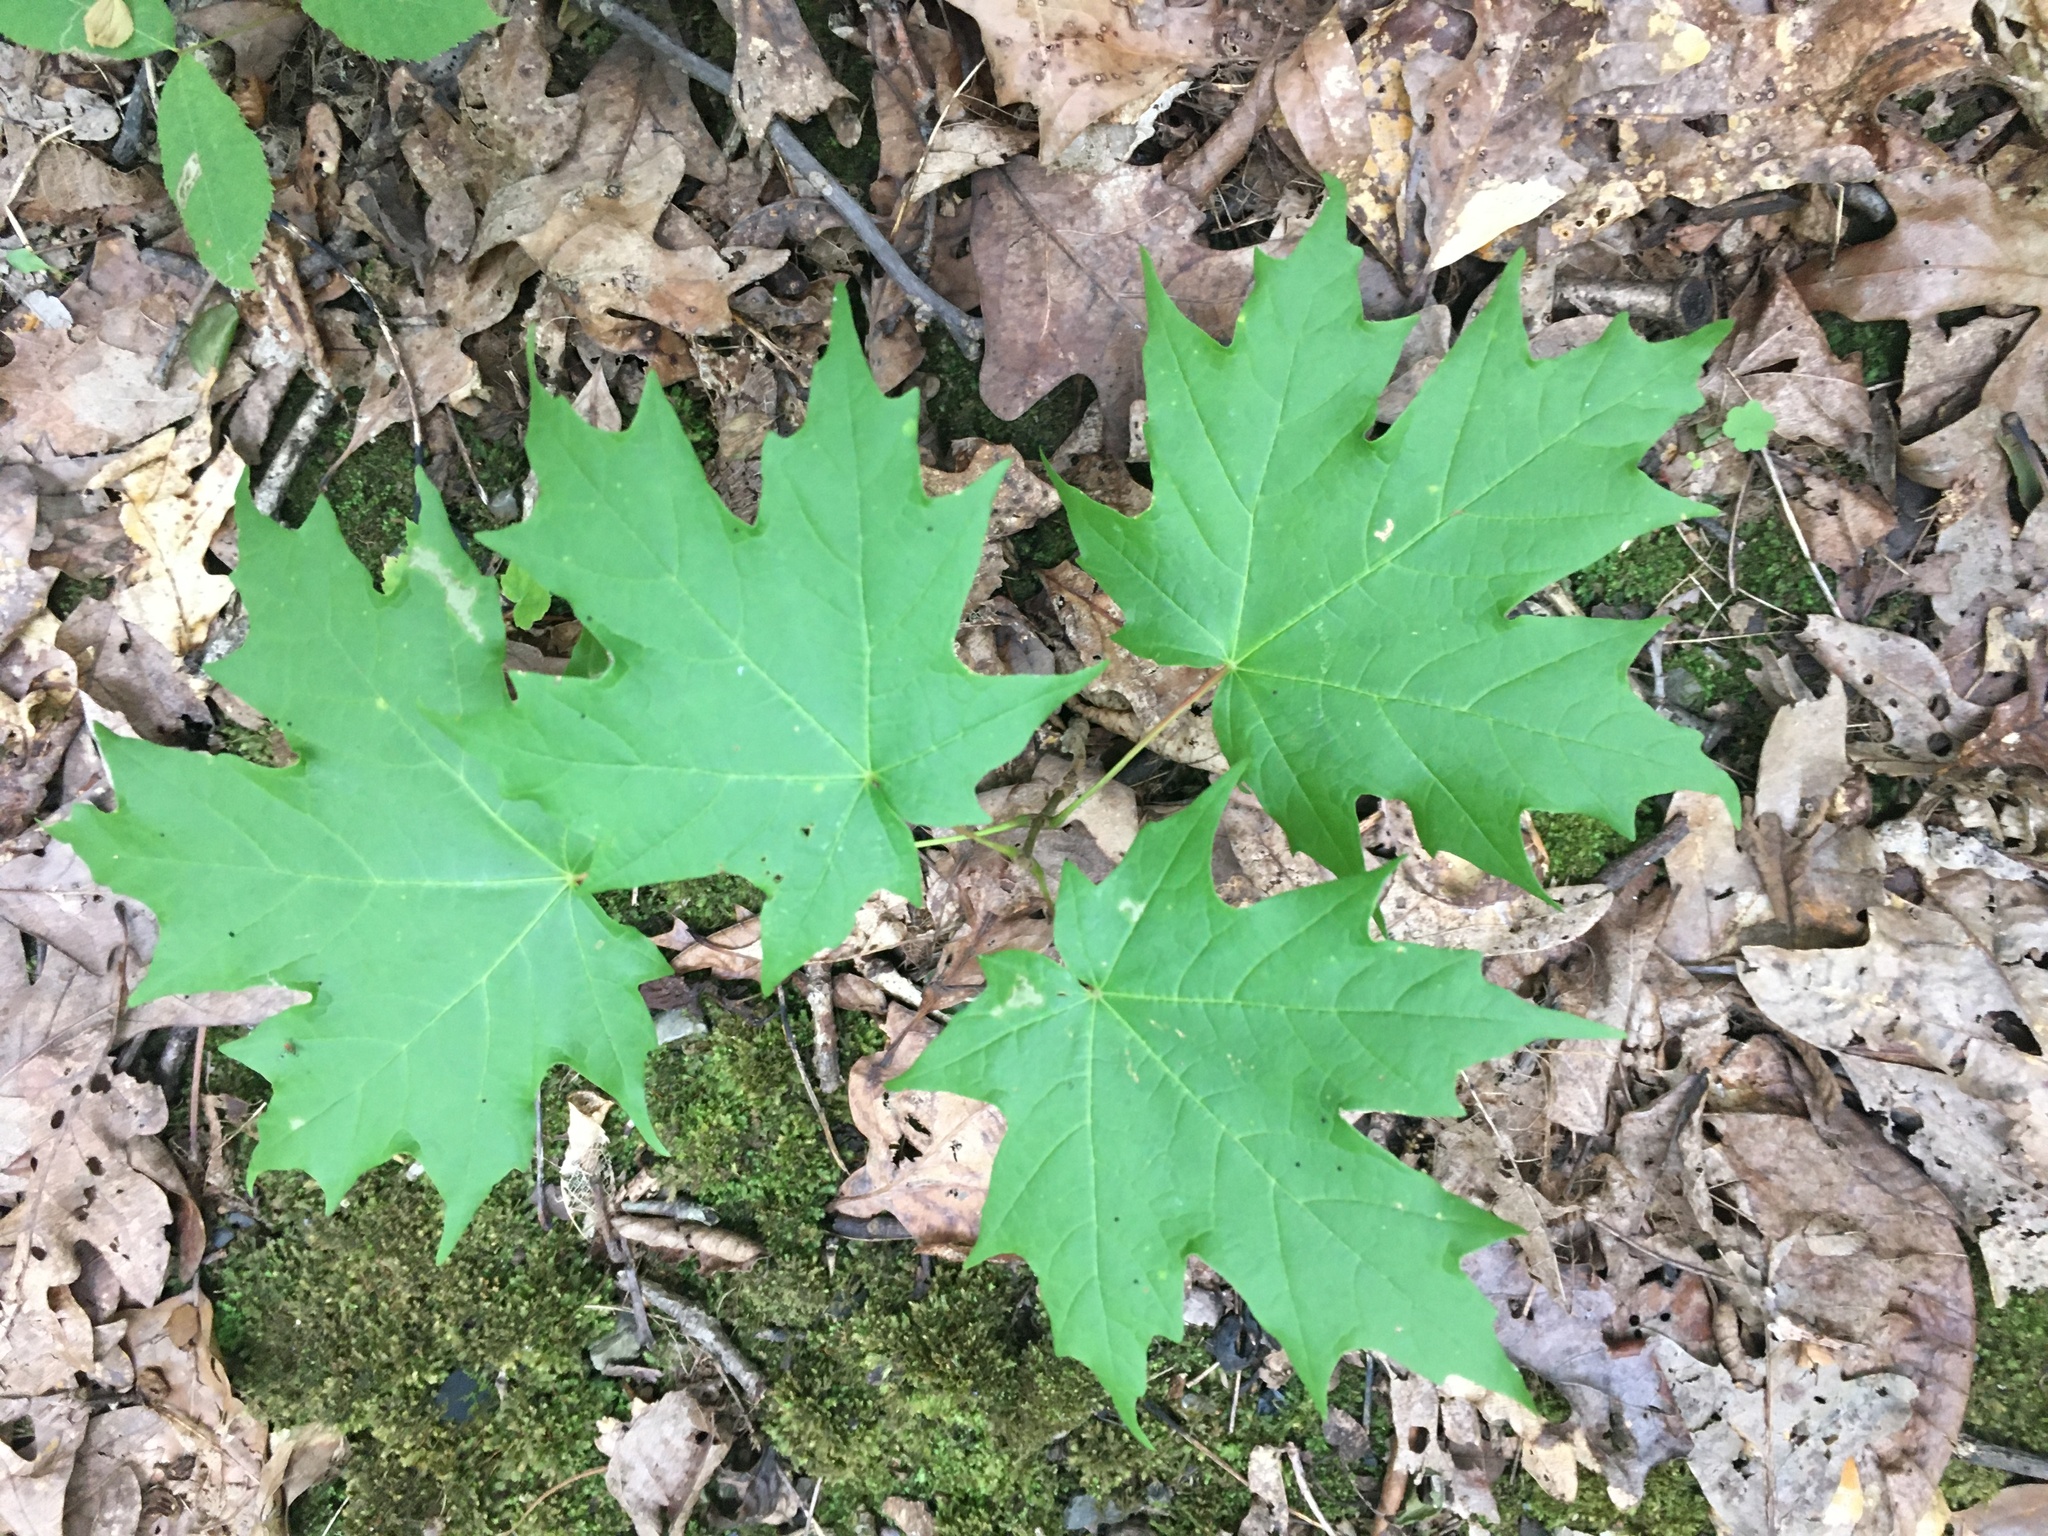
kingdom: Plantae
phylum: Tracheophyta
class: Magnoliopsida
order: Sapindales
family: Sapindaceae
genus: Acer
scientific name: Acer saccharum
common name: Sugar maple
